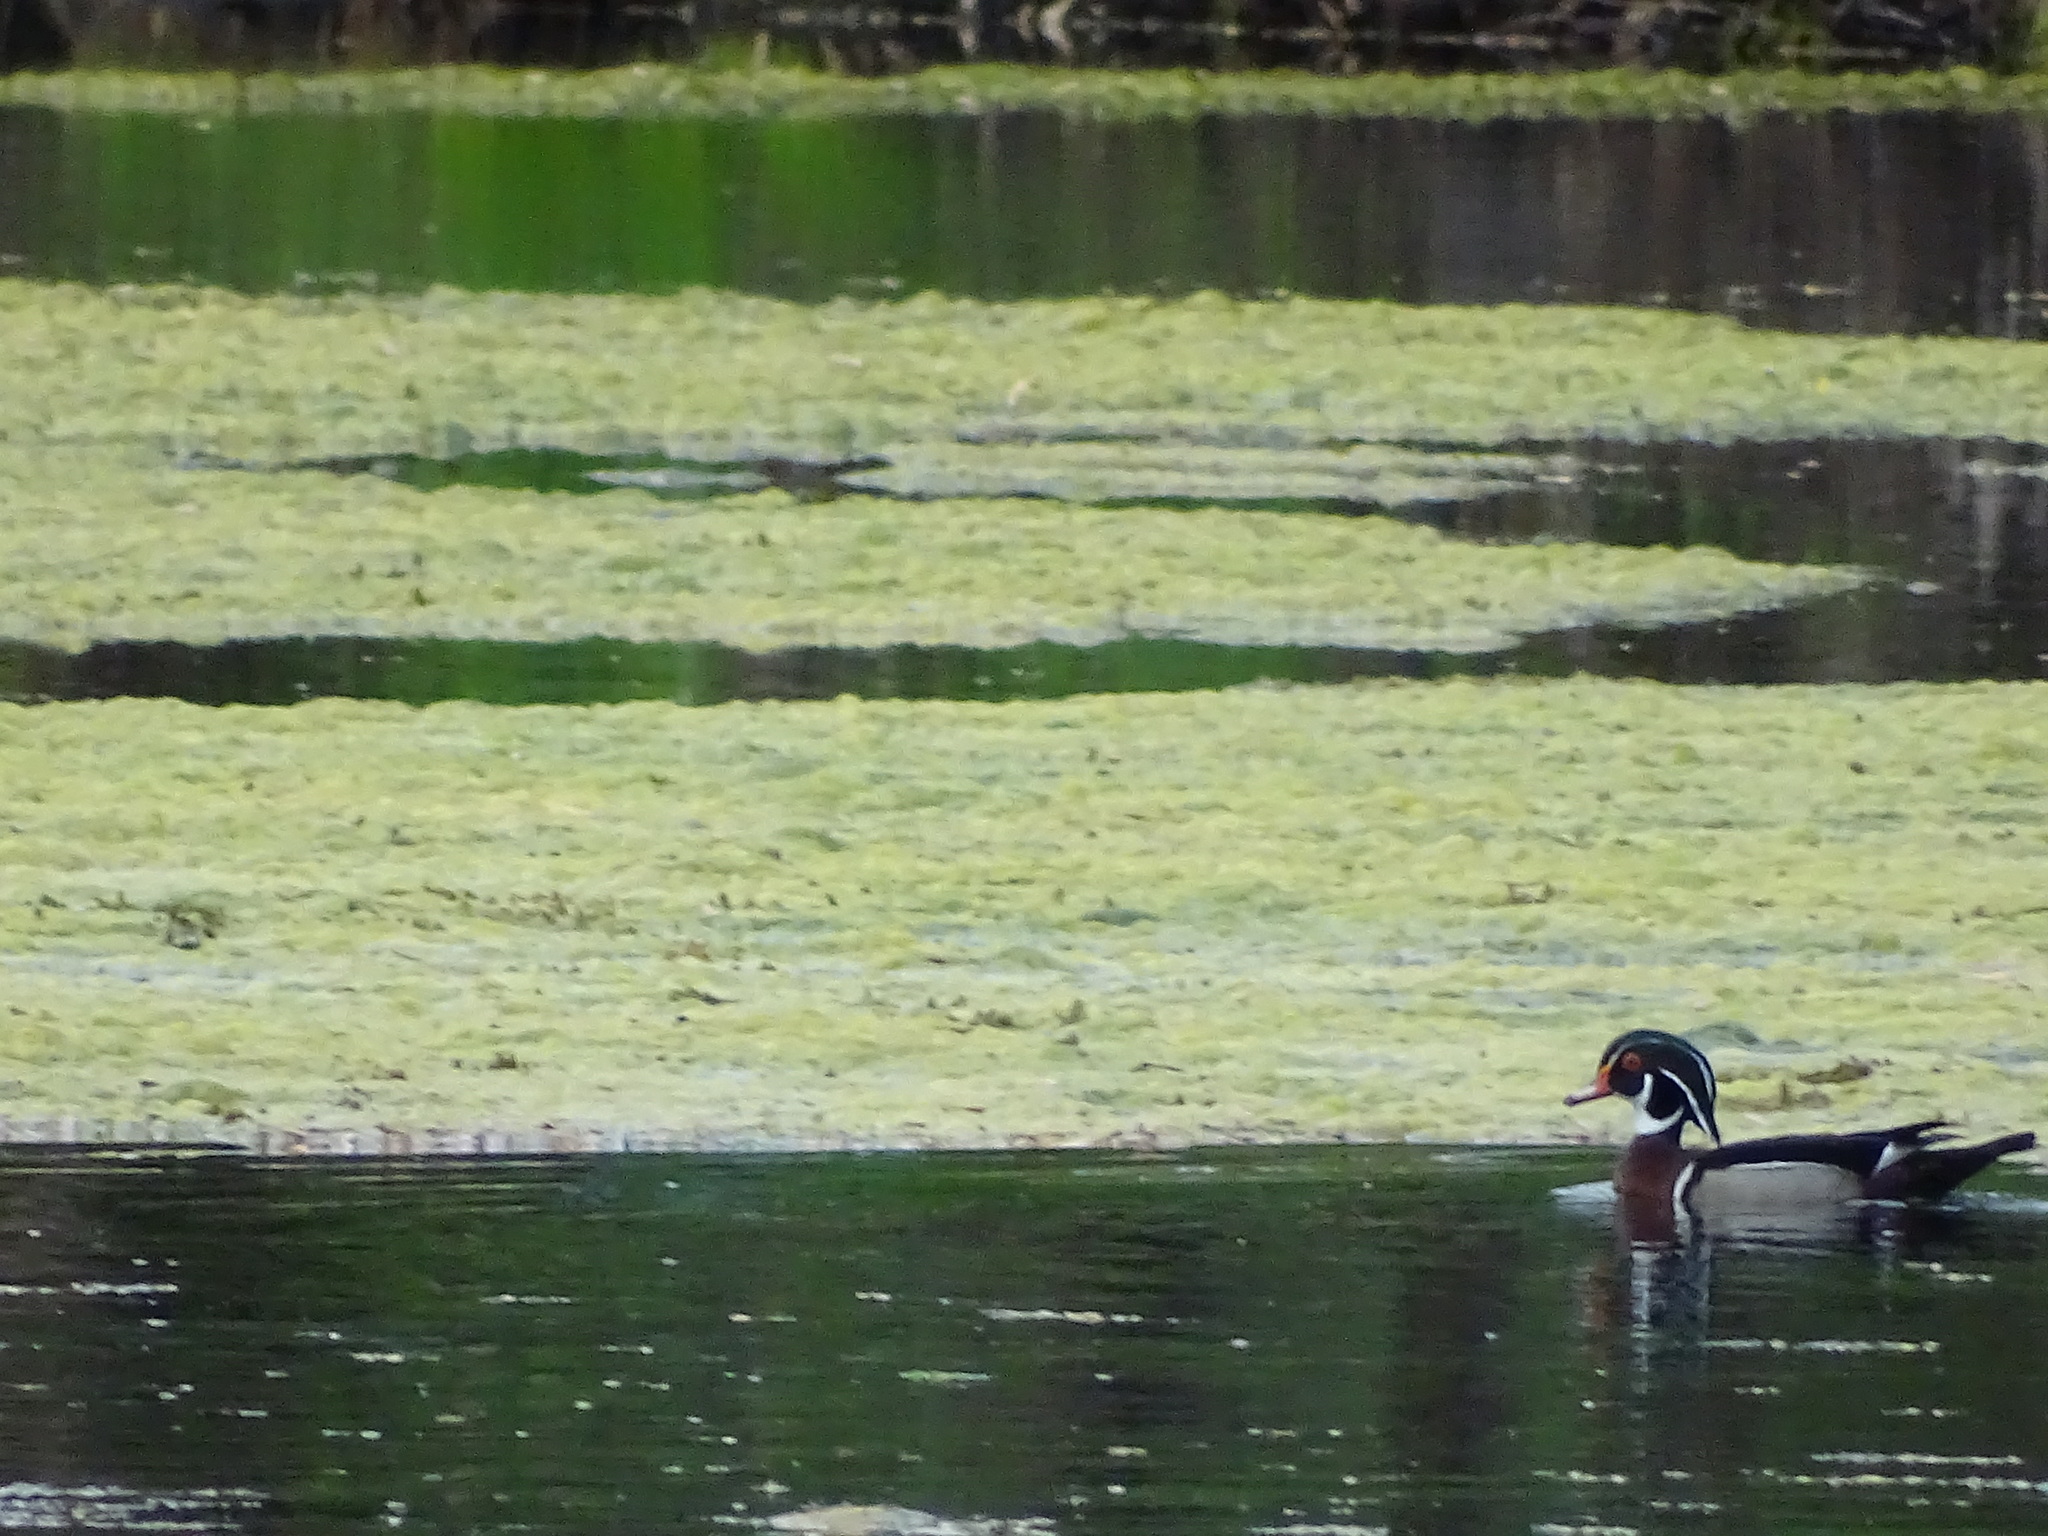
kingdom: Animalia
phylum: Chordata
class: Aves
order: Anseriformes
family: Anatidae
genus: Aix
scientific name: Aix sponsa
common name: Wood duck
